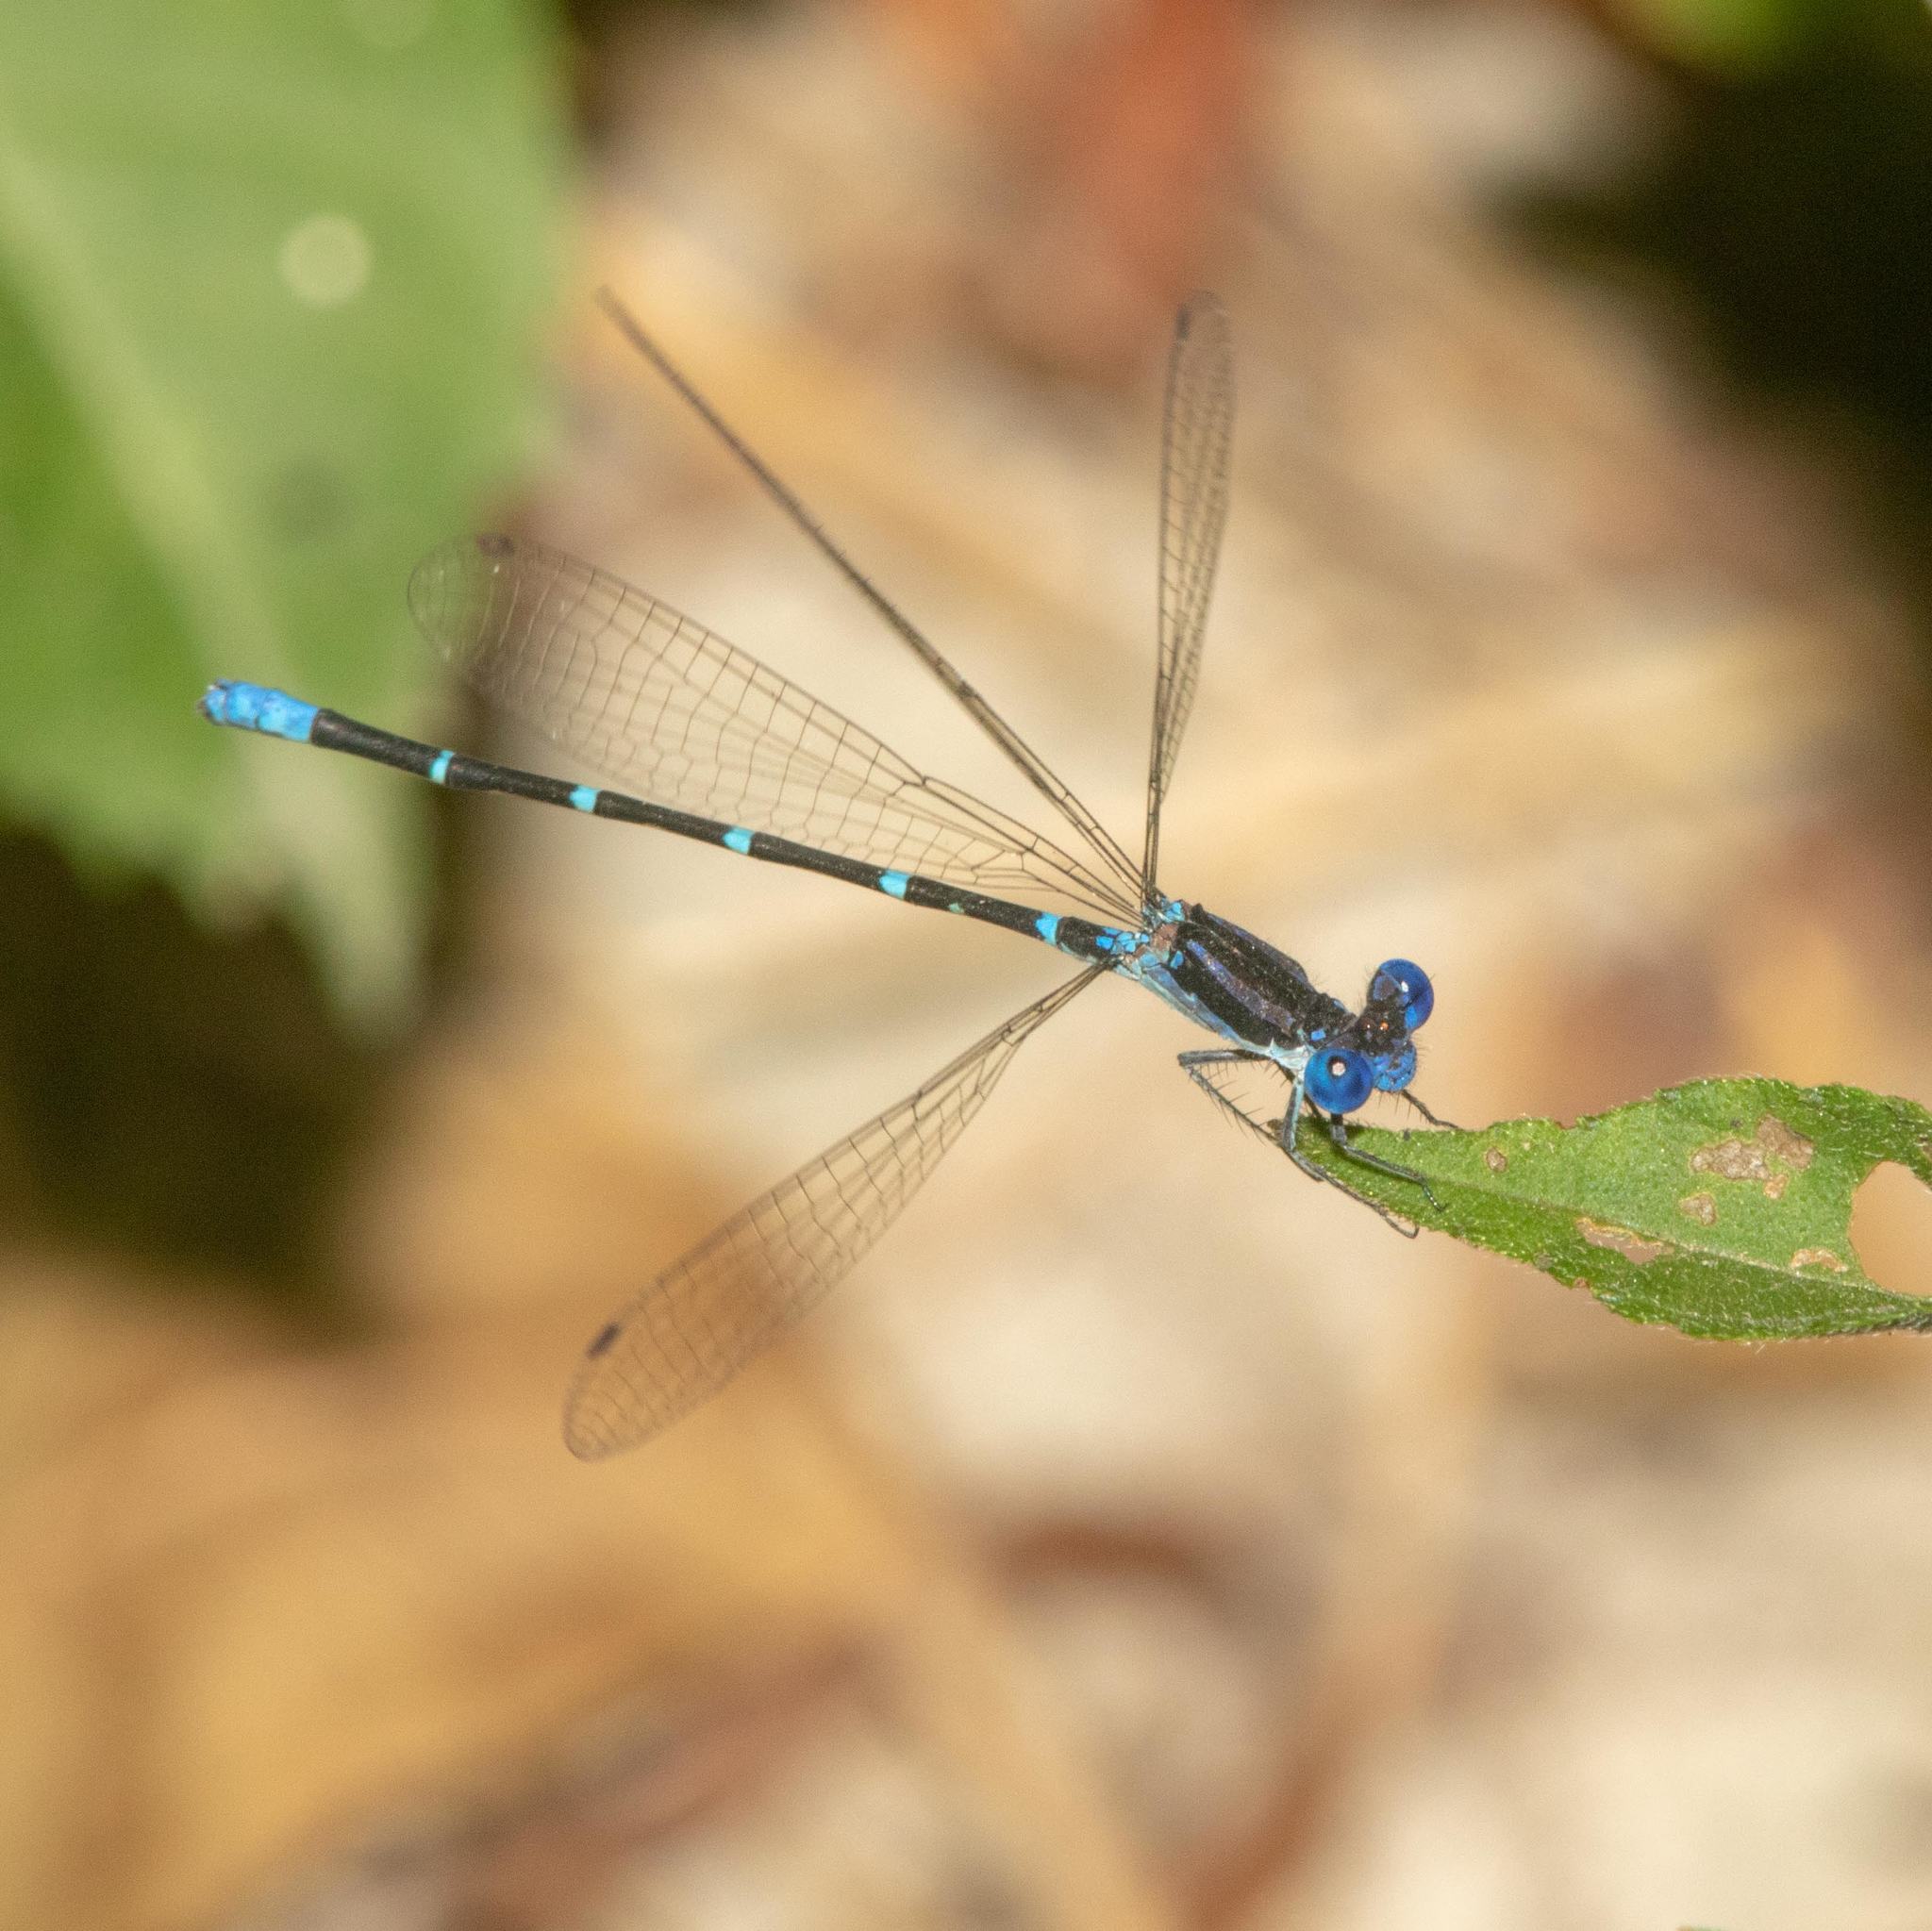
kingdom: Animalia
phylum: Arthropoda
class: Insecta
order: Odonata
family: Coenagrionidae
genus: Argia
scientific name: Argia sedula
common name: Blue-ringed dancer
